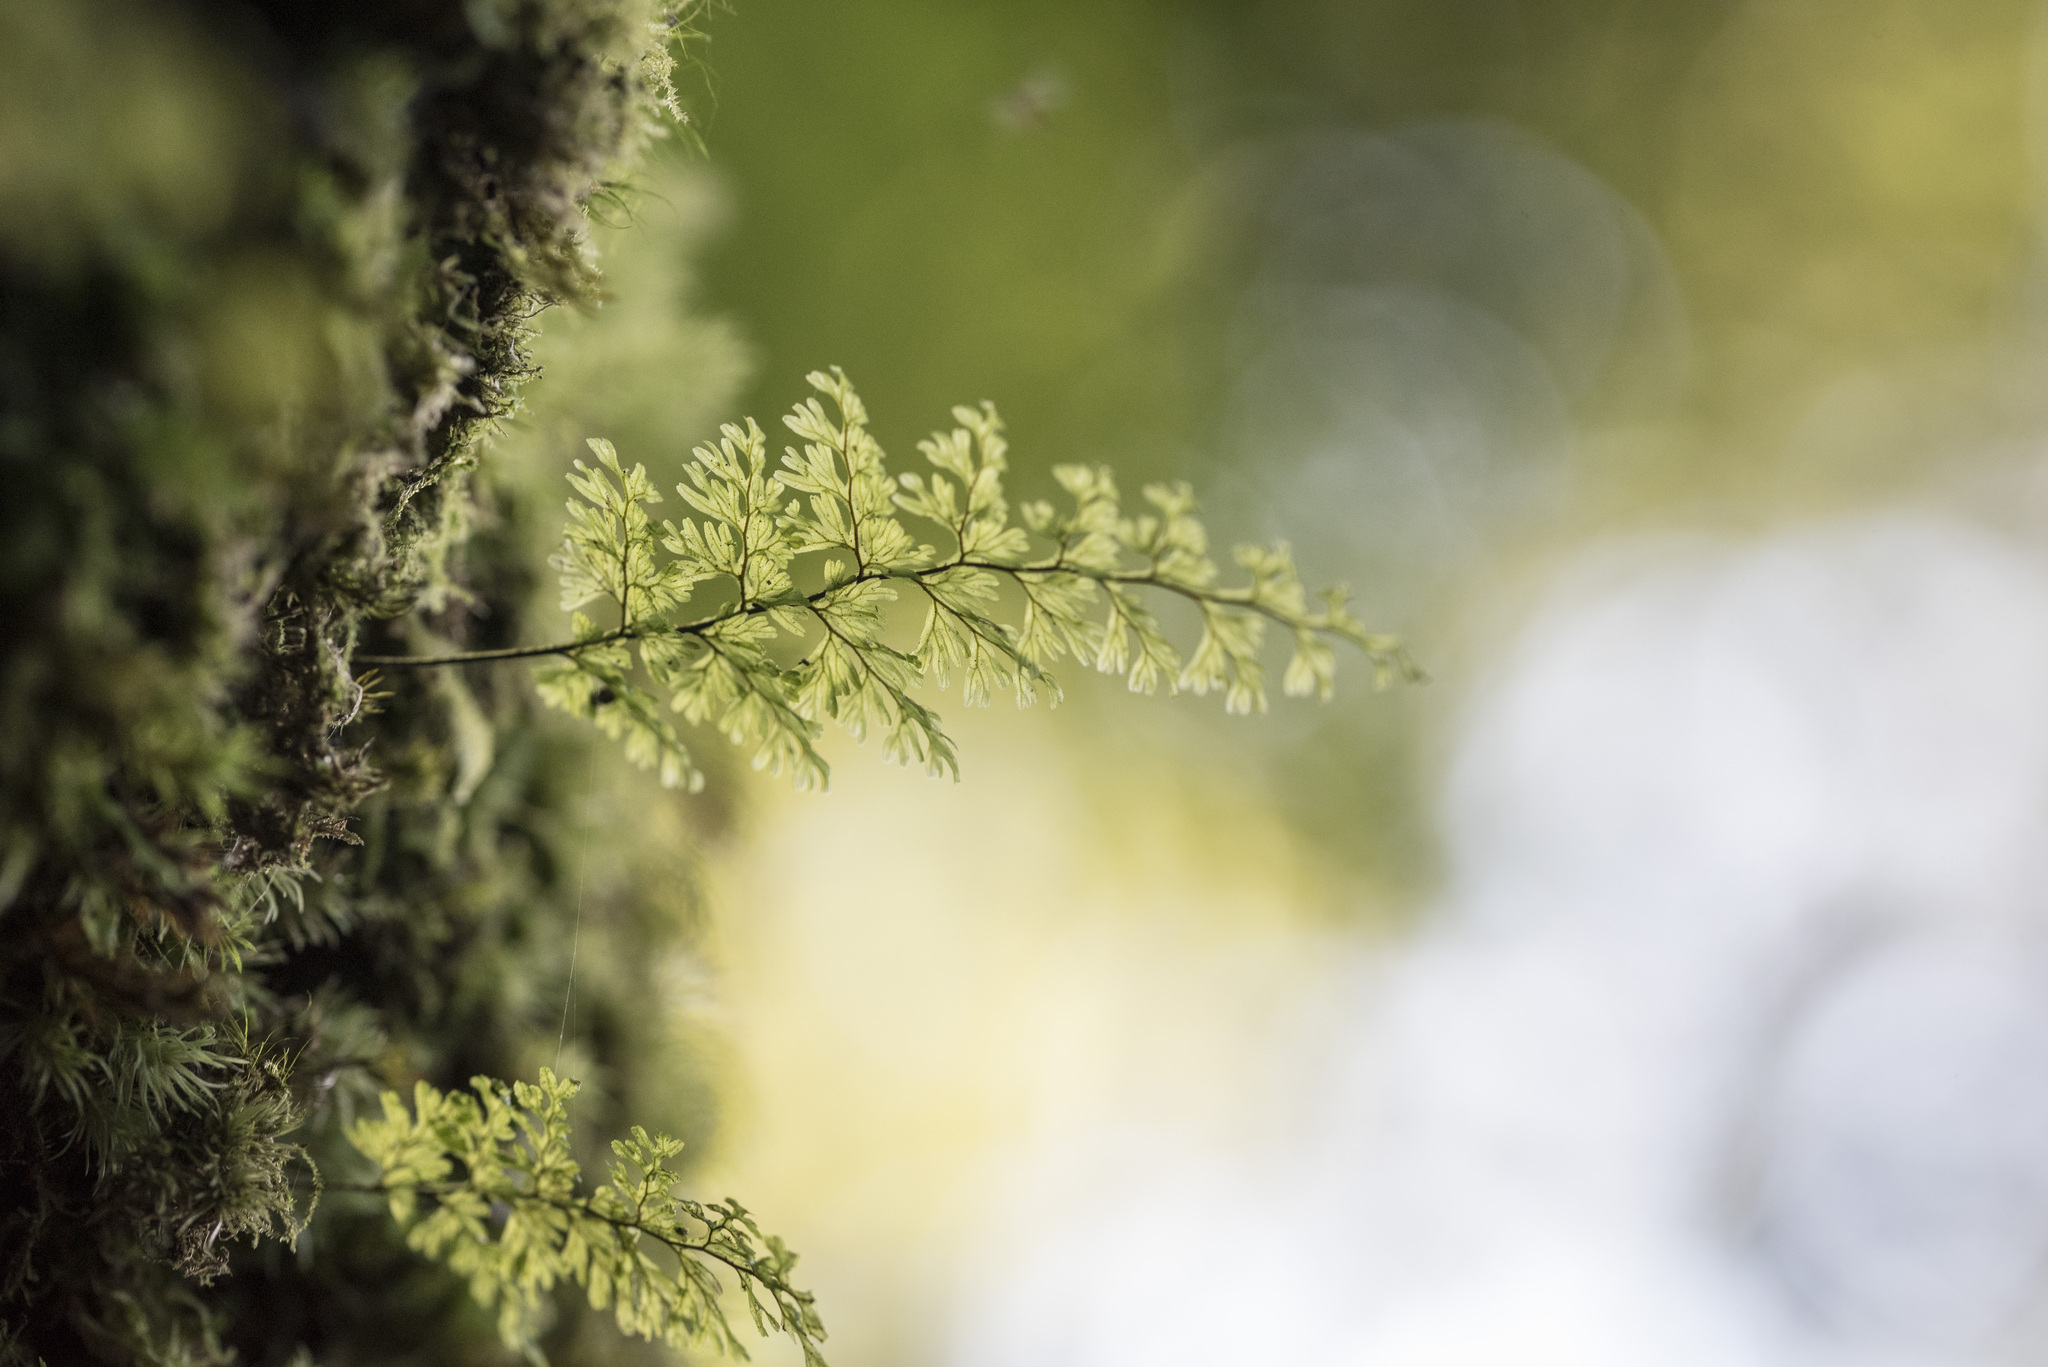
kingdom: Plantae
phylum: Tracheophyta
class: Polypodiopsida
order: Hymenophyllales
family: Hymenophyllaceae
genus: Hymenophyllum
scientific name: Hymenophyllum fujisanense
